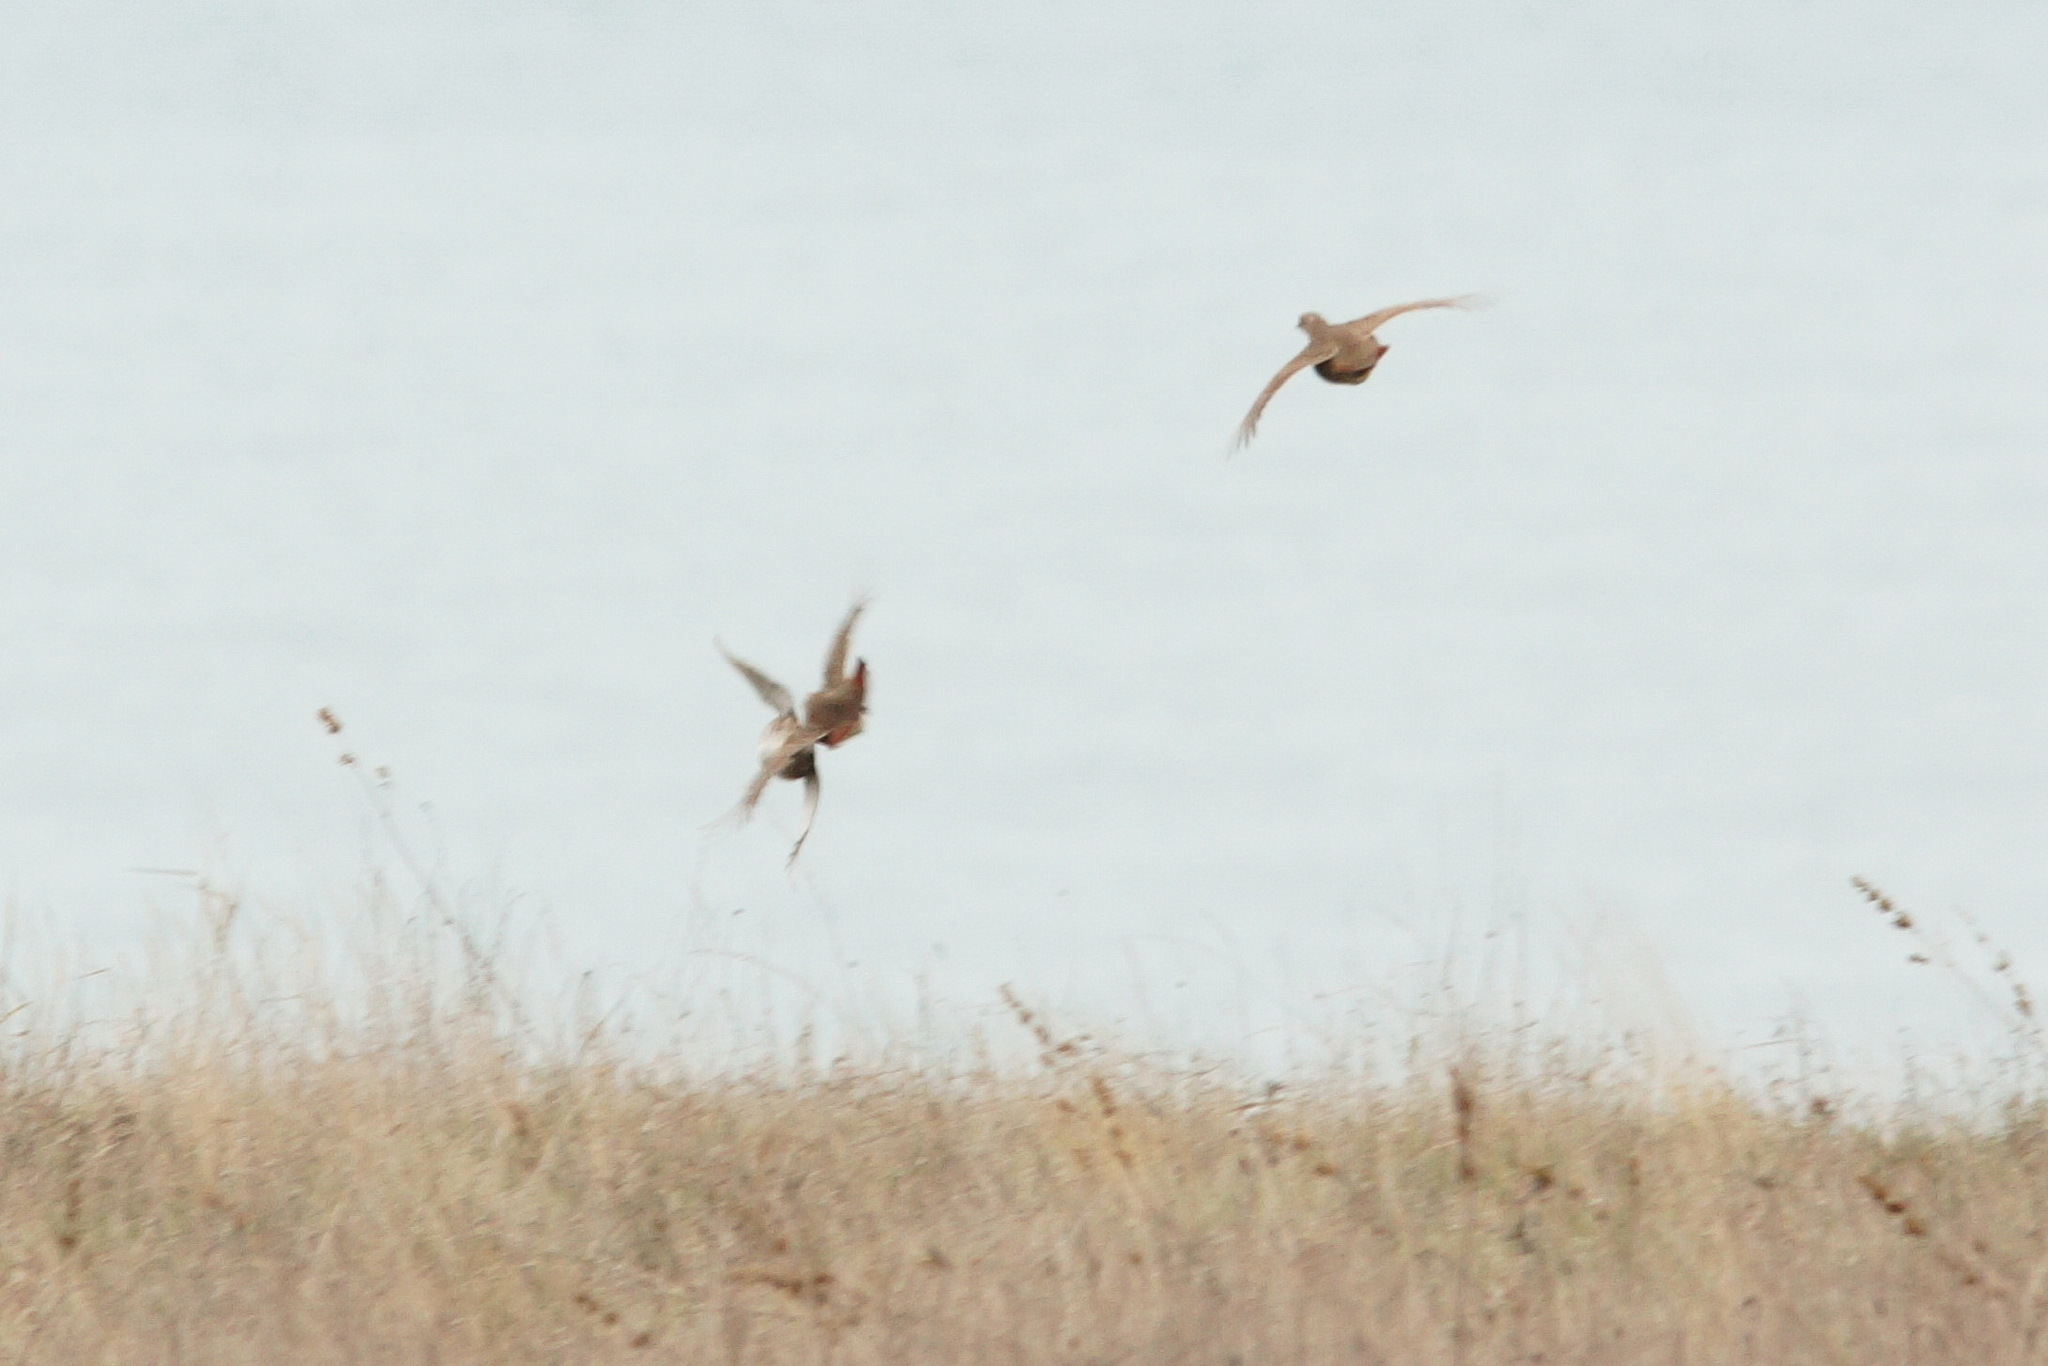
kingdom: Animalia
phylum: Chordata
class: Aves
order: Galliformes
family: Phasianidae
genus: Perdix
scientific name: Perdix perdix
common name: Grey partridge
